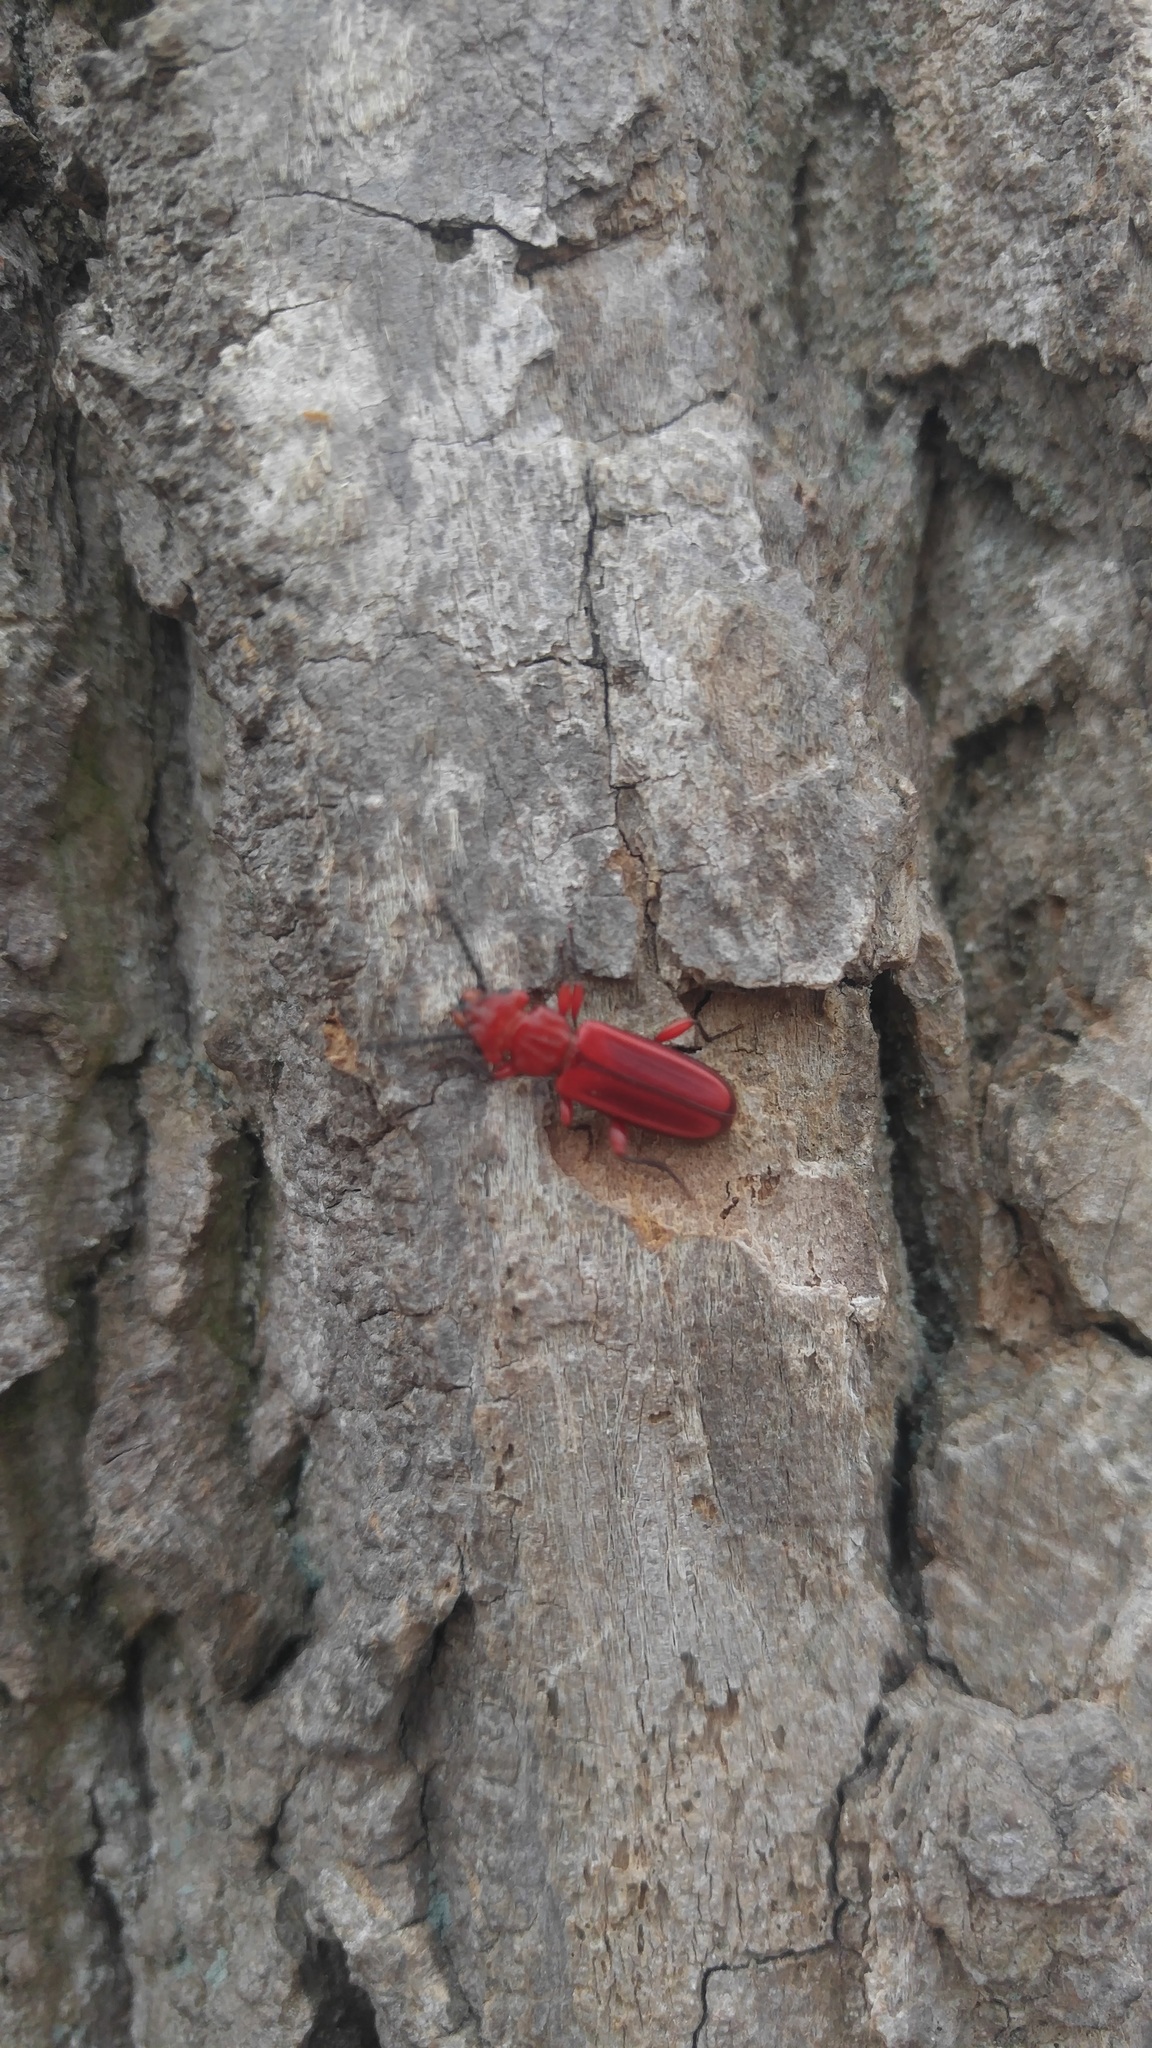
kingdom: Animalia
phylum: Arthropoda
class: Insecta
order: Coleoptera
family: Cucujidae
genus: Cucujus
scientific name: Cucujus clavipes
